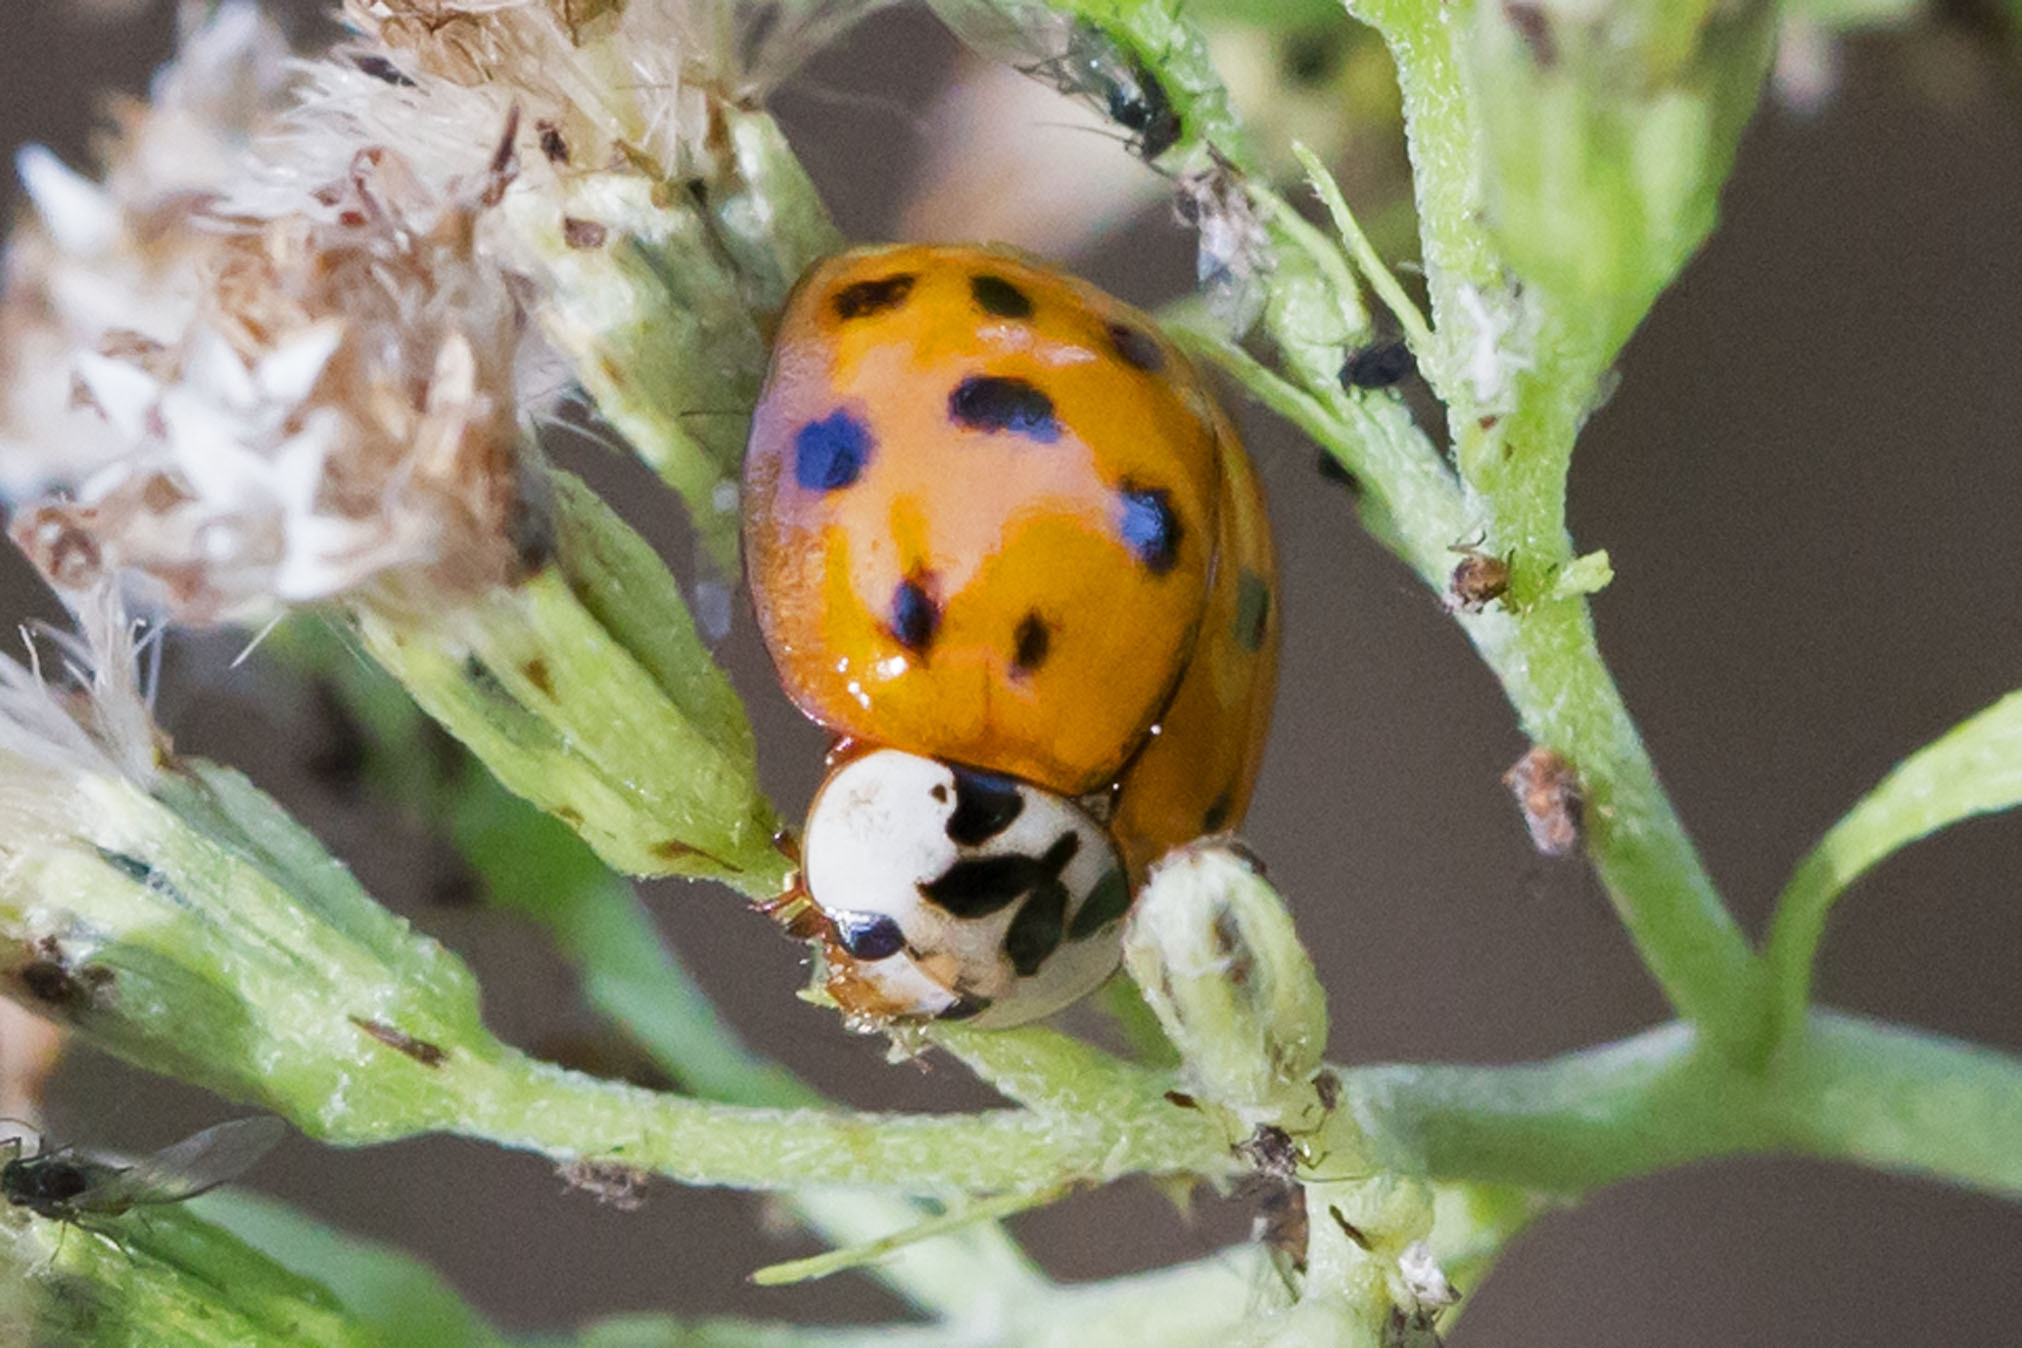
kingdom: Animalia
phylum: Arthropoda
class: Insecta
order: Coleoptera
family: Coccinellidae
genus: Harmonia
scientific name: Harmonia axyridis
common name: Harlequin ladybird
